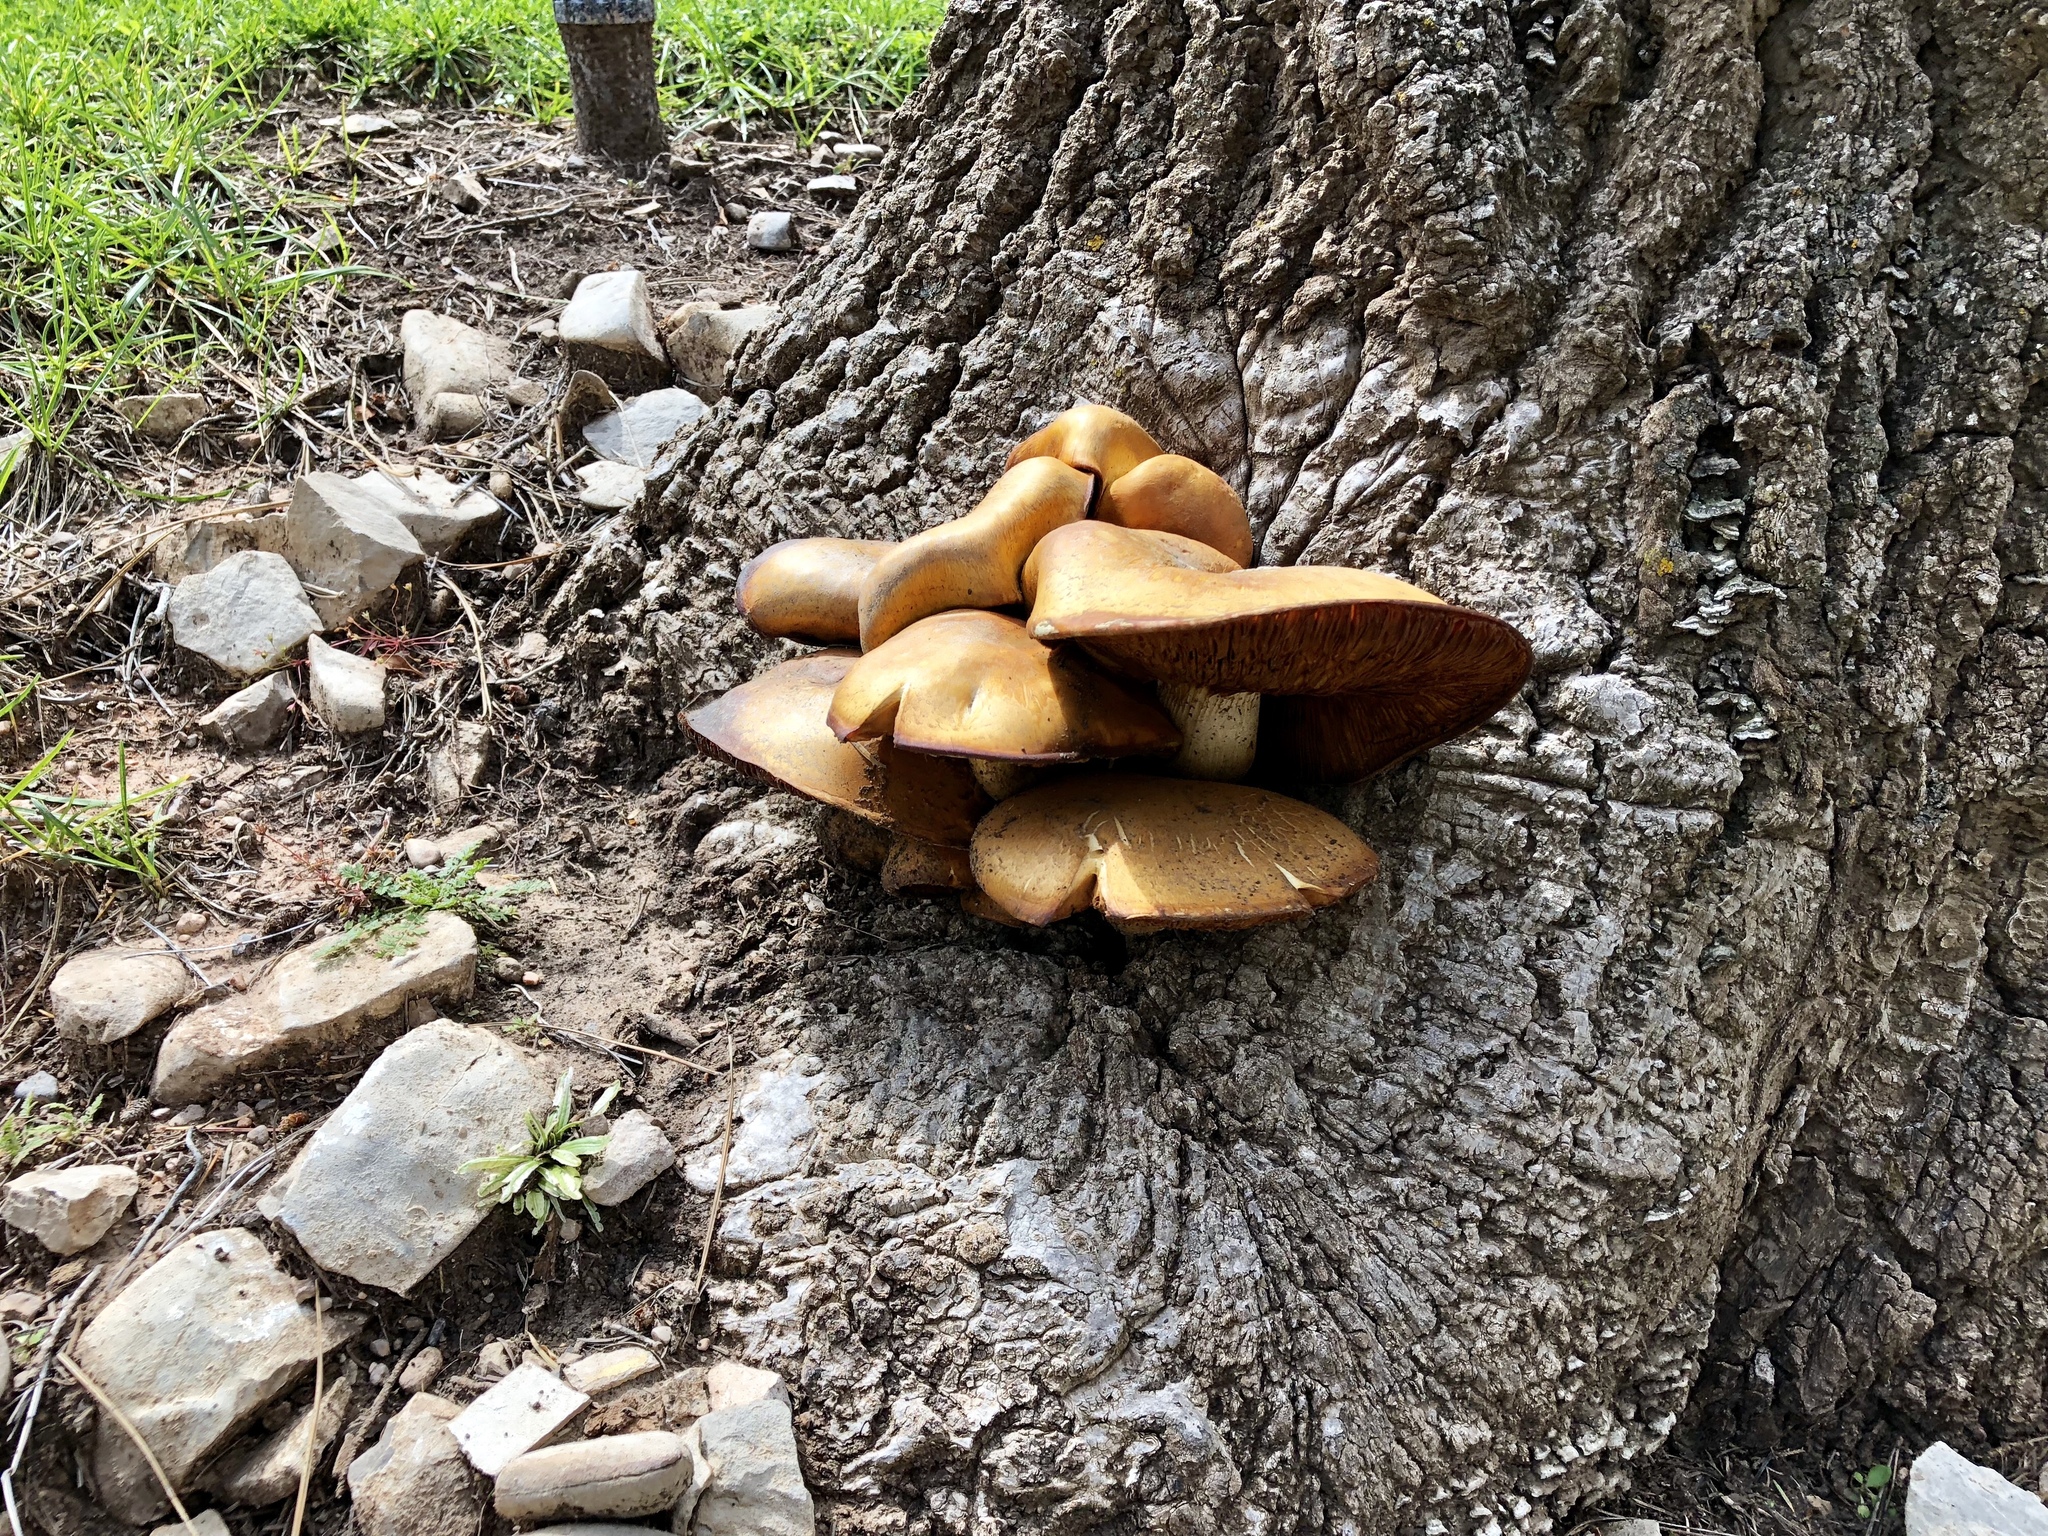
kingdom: Fungi
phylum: Basidiomycota
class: Agaricomycetes
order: Agaricales
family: Hymenogastraceae
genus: Gymnopilus
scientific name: Gymnopilus ventricosus
